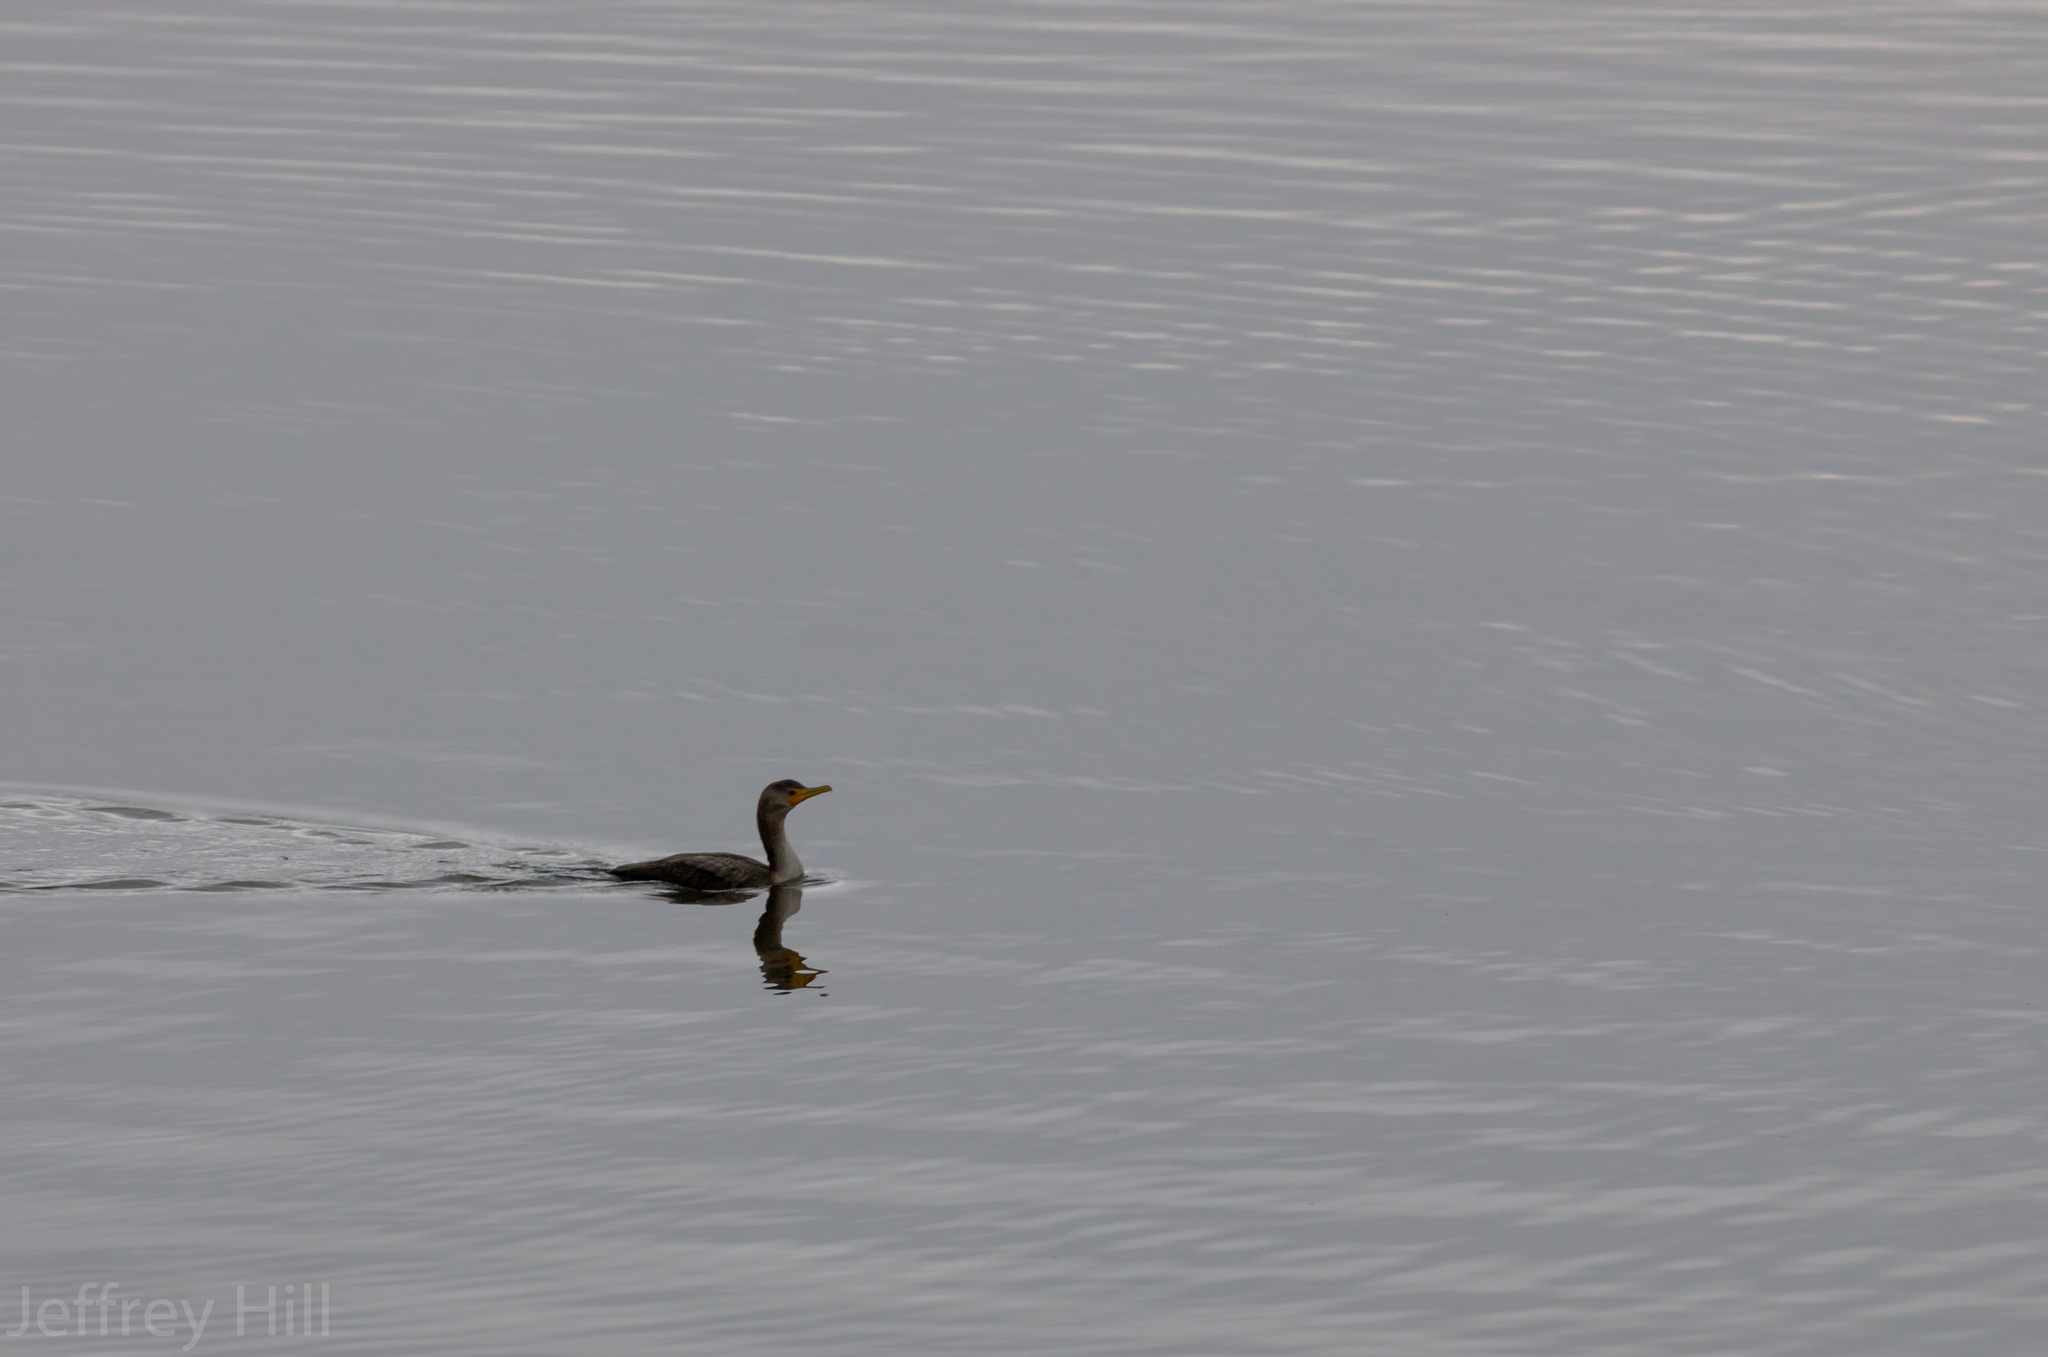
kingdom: Animalia
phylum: Chordata
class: Aves
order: Suliformes
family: Phalacrocoracidae
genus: Phalacrocorax
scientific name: Phalacrocorax auritus
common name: Double-crested cormorant
